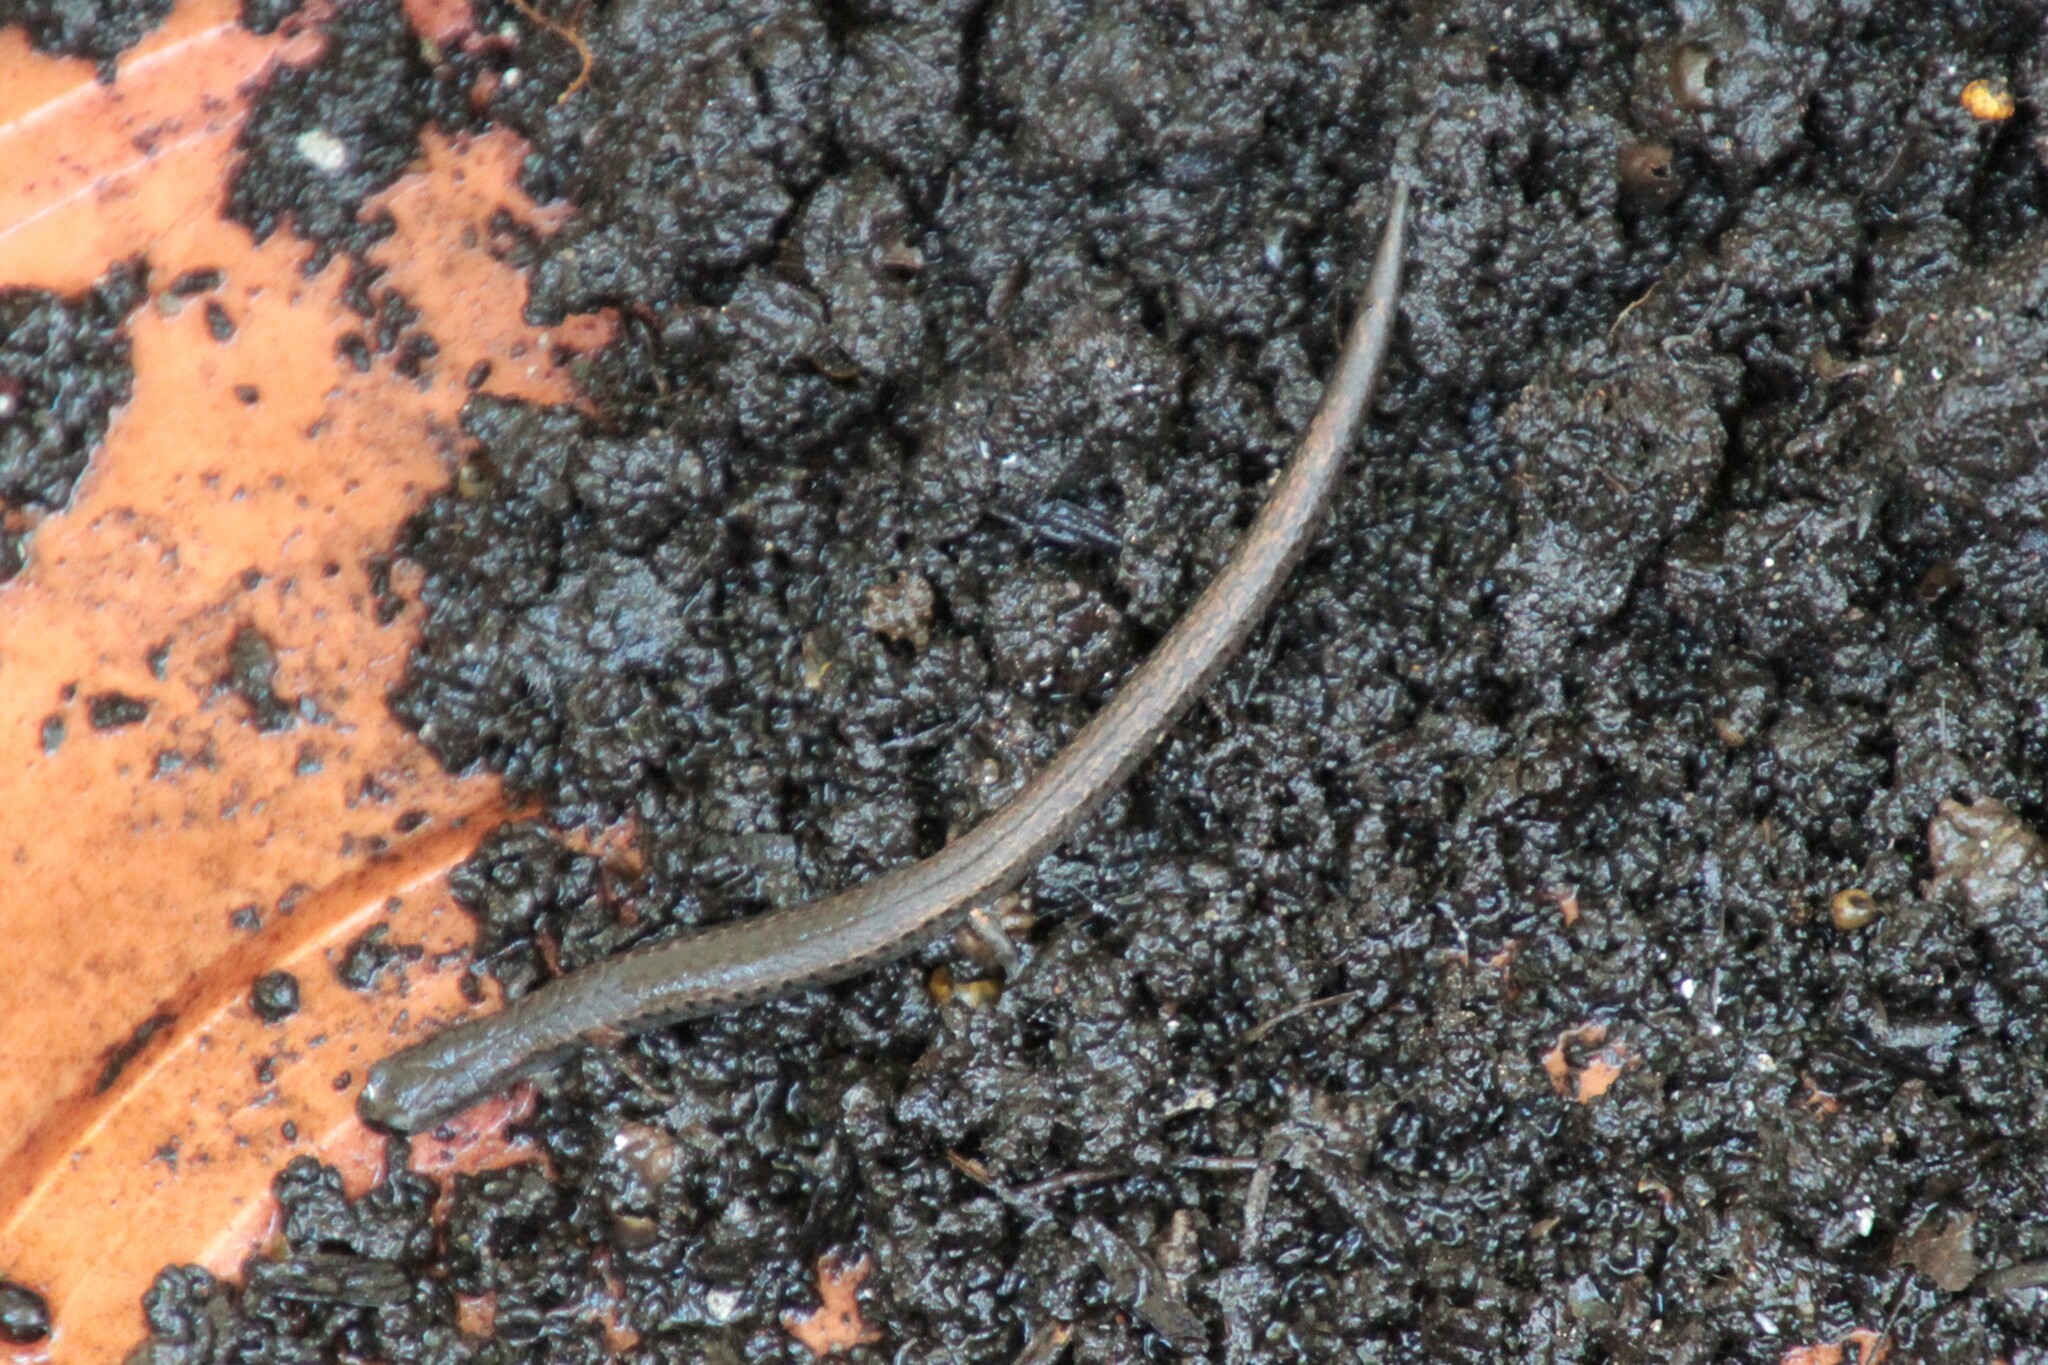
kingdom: Animalia
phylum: Chordata
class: Amphibia
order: Caudata
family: Plethodontidae
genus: Batrachoseps
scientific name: Batrachoseps attenuatus
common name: California slender salamander
